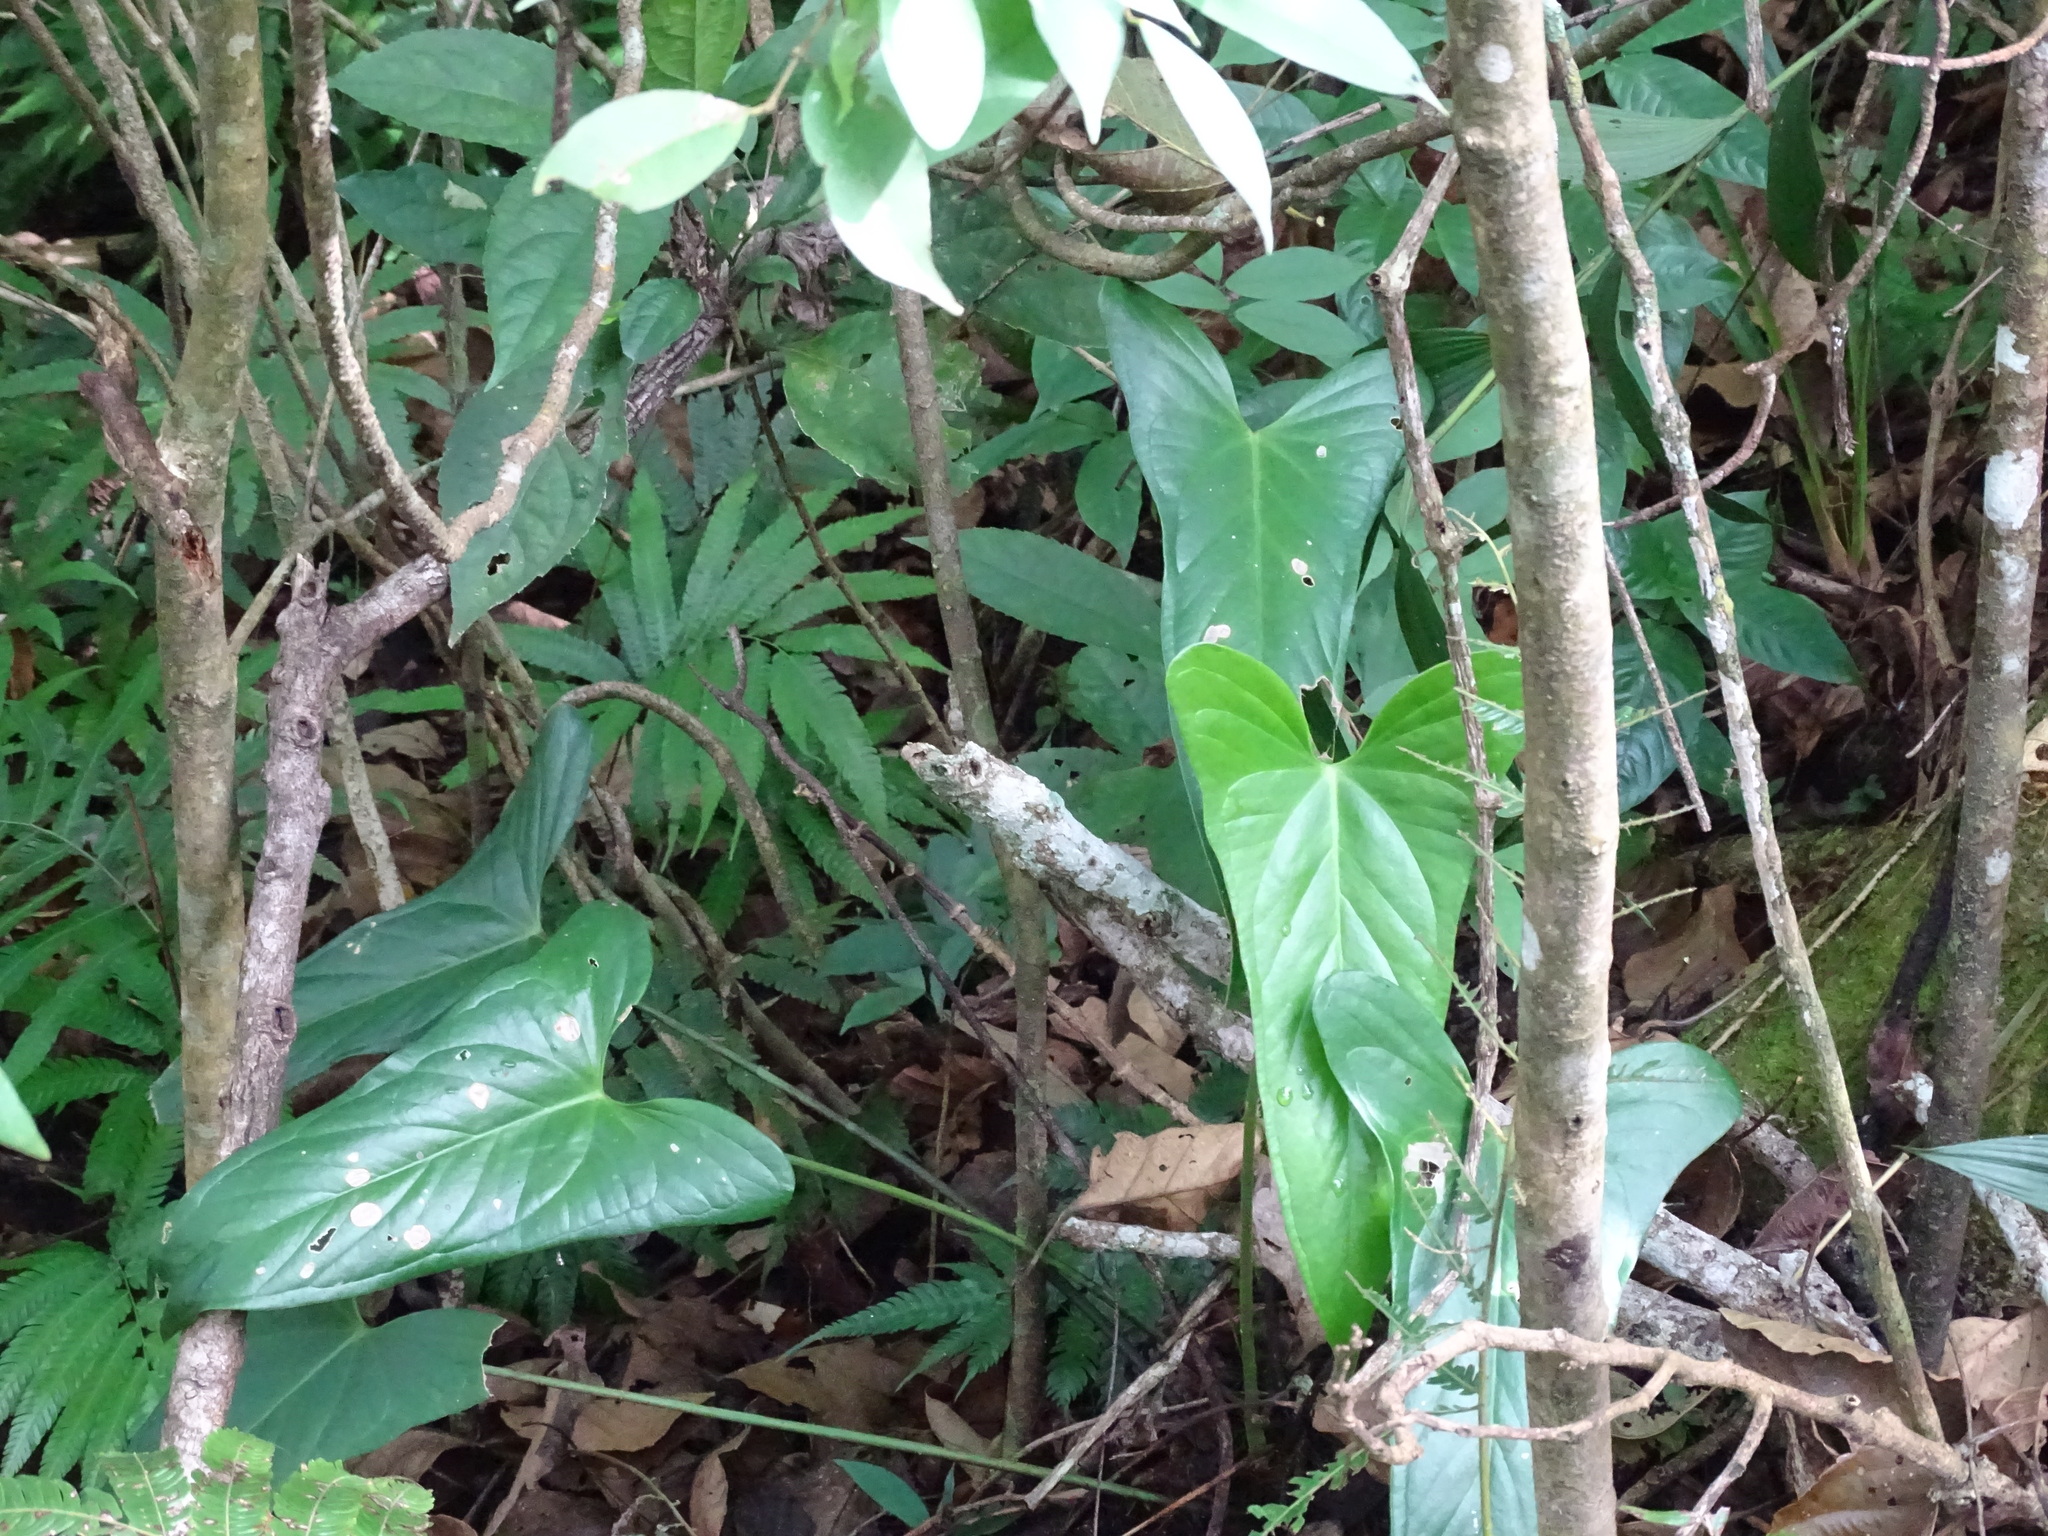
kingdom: Plantae
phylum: Tracheophyta
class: Liliopsida
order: Alismatales
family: Araceae
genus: Anthurium
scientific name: Anthurium chiapasense
